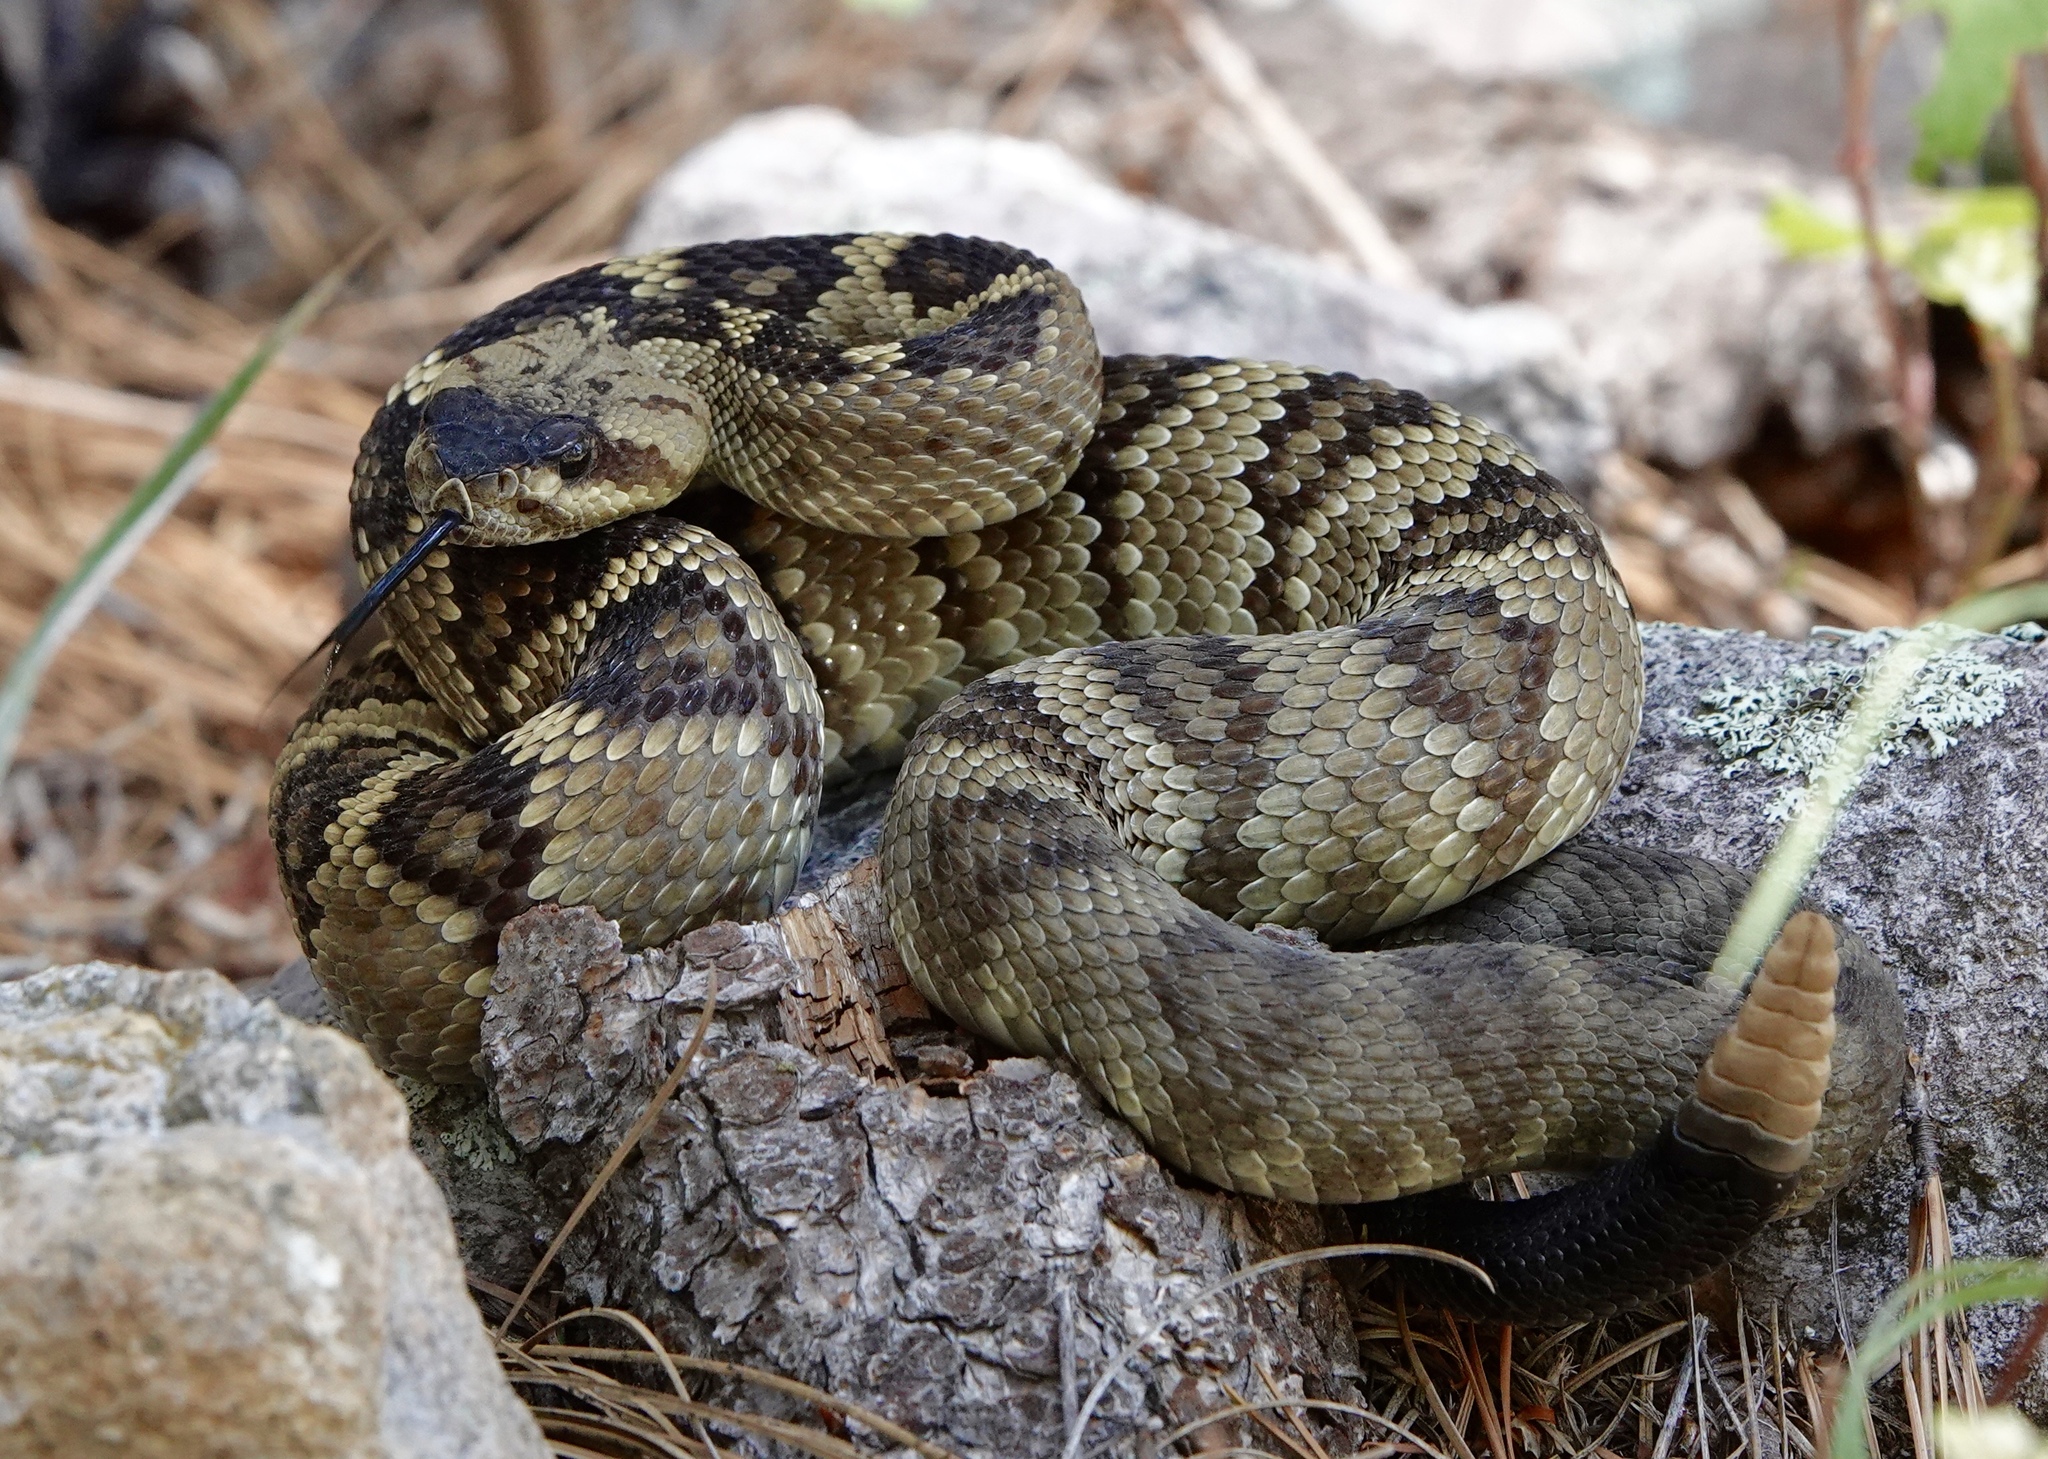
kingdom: Animalia
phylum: Chordata
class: Squamata
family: Viperidae
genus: Crotalus
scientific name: Crotalus molossus
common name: Black tailed rattlesnake
